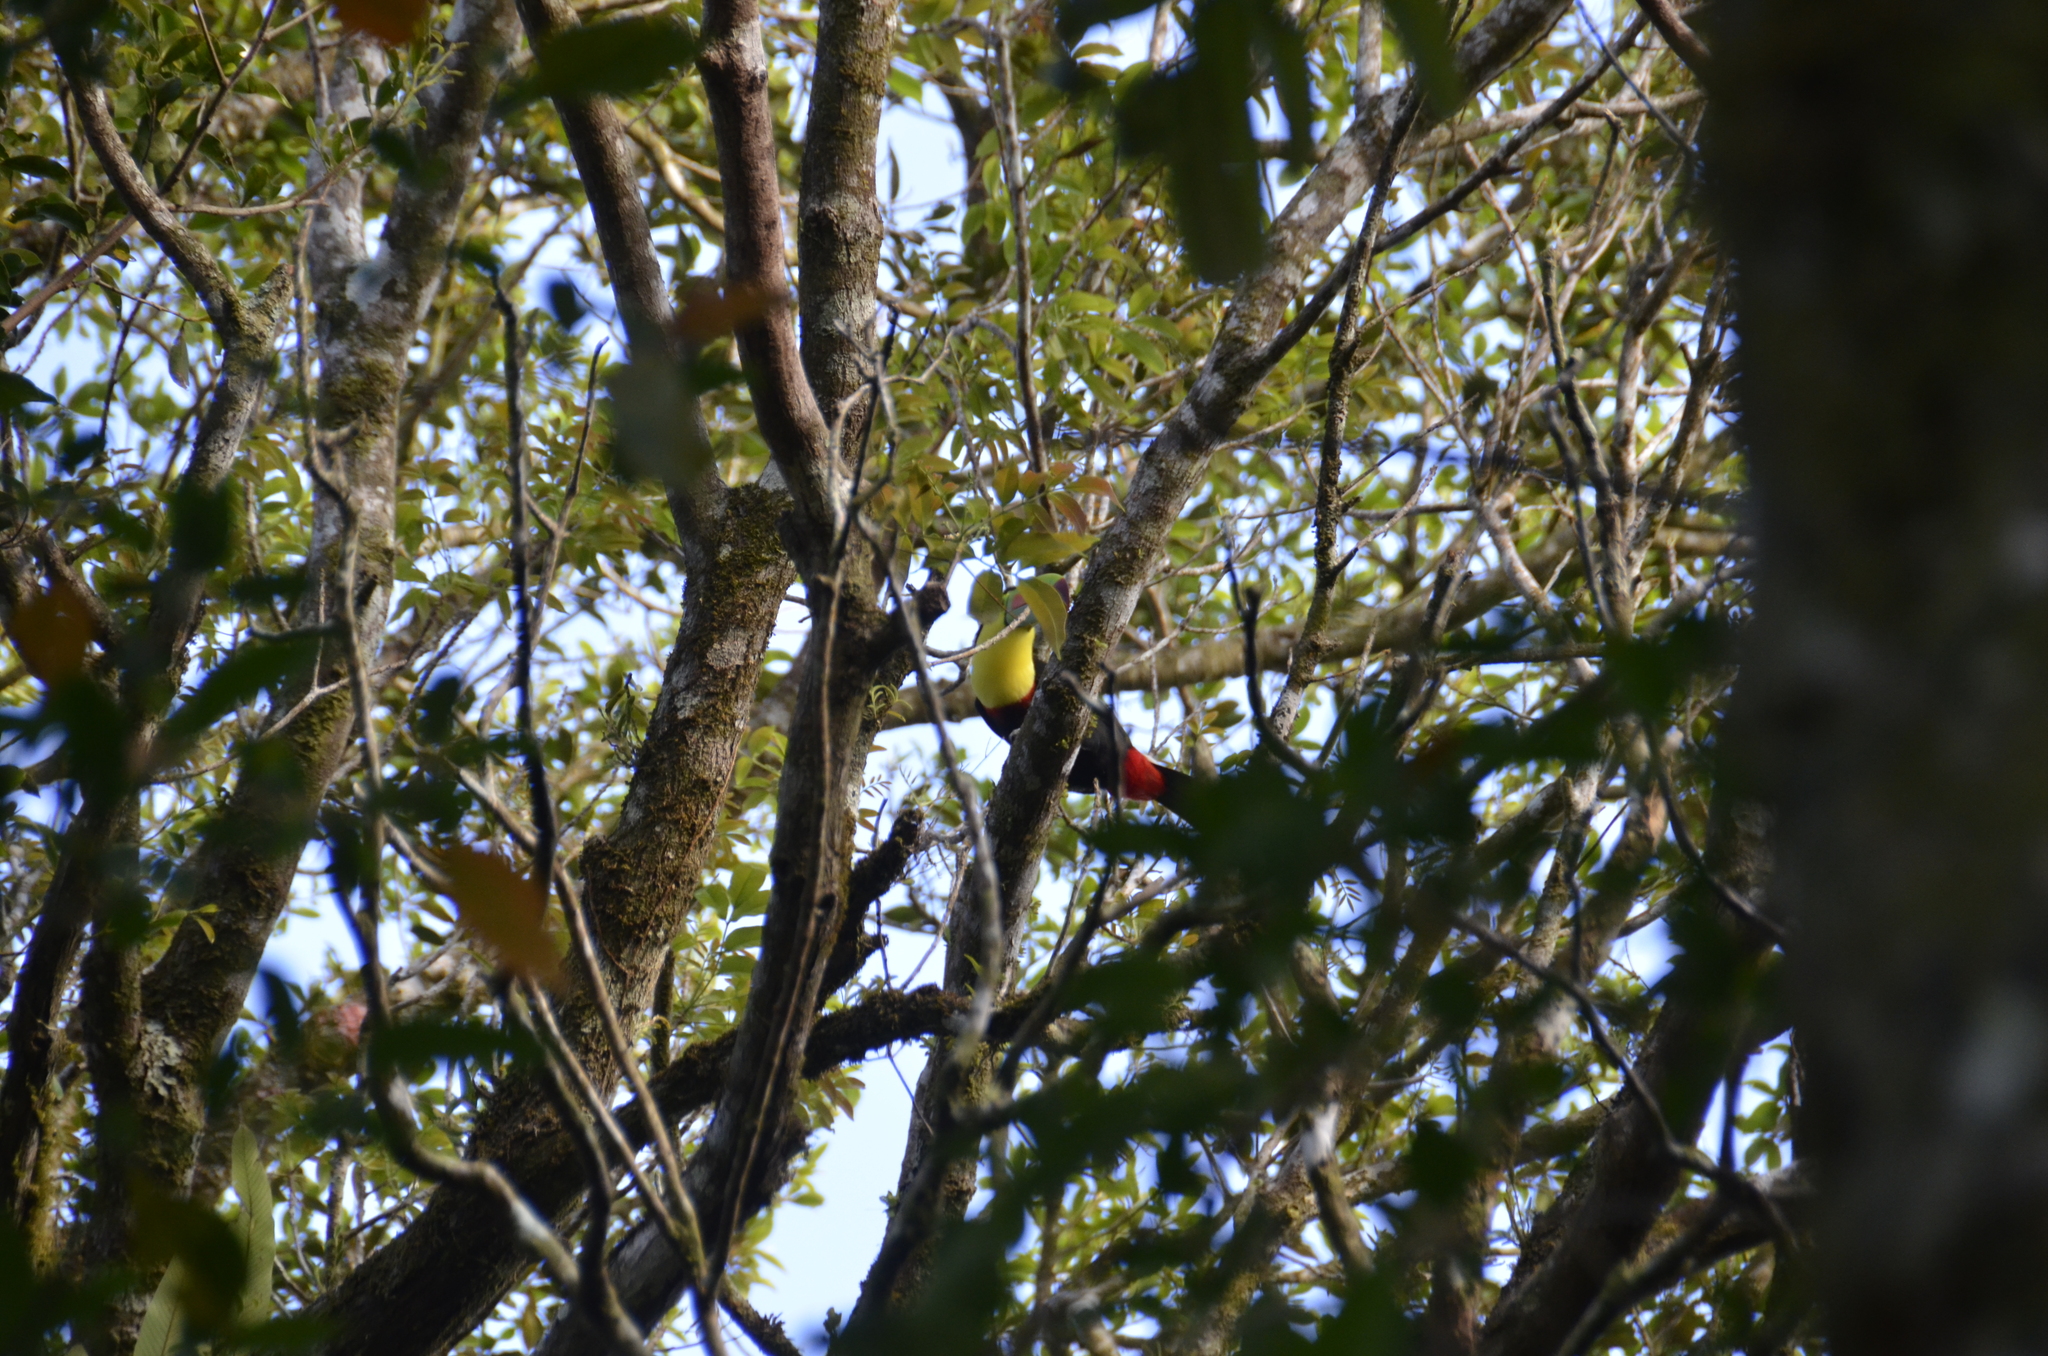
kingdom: Animalia
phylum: Chordata
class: Aves
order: Piciformes
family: Ramphastidae
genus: Ramphastos
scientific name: Ramphastos sulfuratus
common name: Keel-billed toucan
